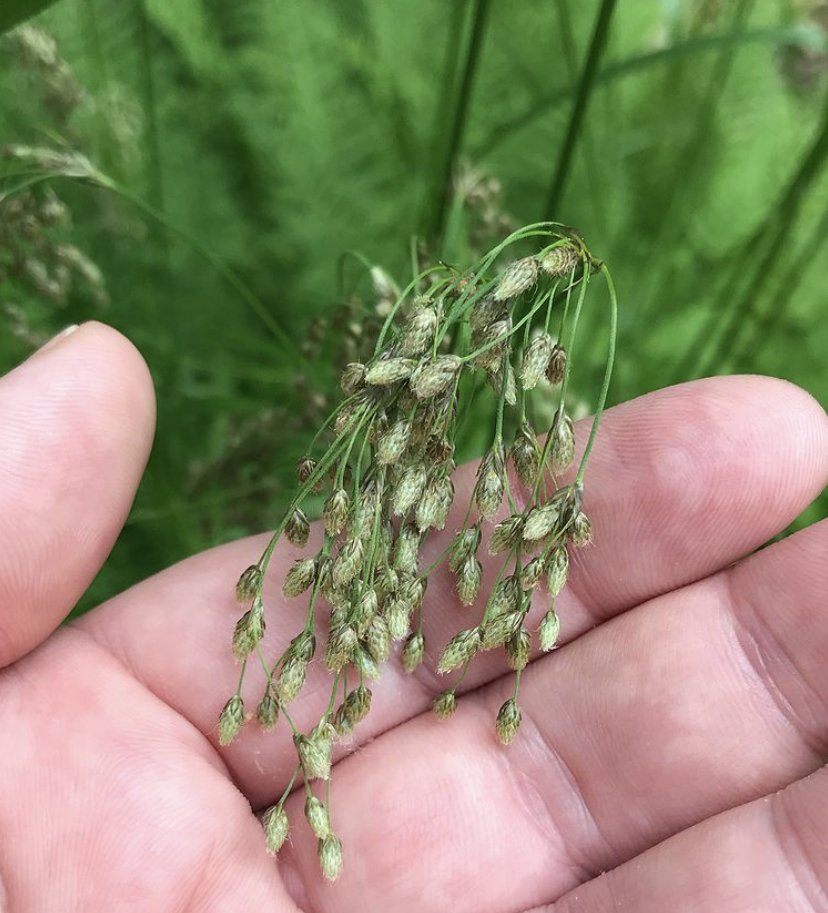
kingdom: Plantae
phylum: Tracheophyta
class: Liliopsida
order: Poales
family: Cyperaceae
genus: Scirpus
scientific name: Scirpus atrocinctus
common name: Black-girdled bulrush
